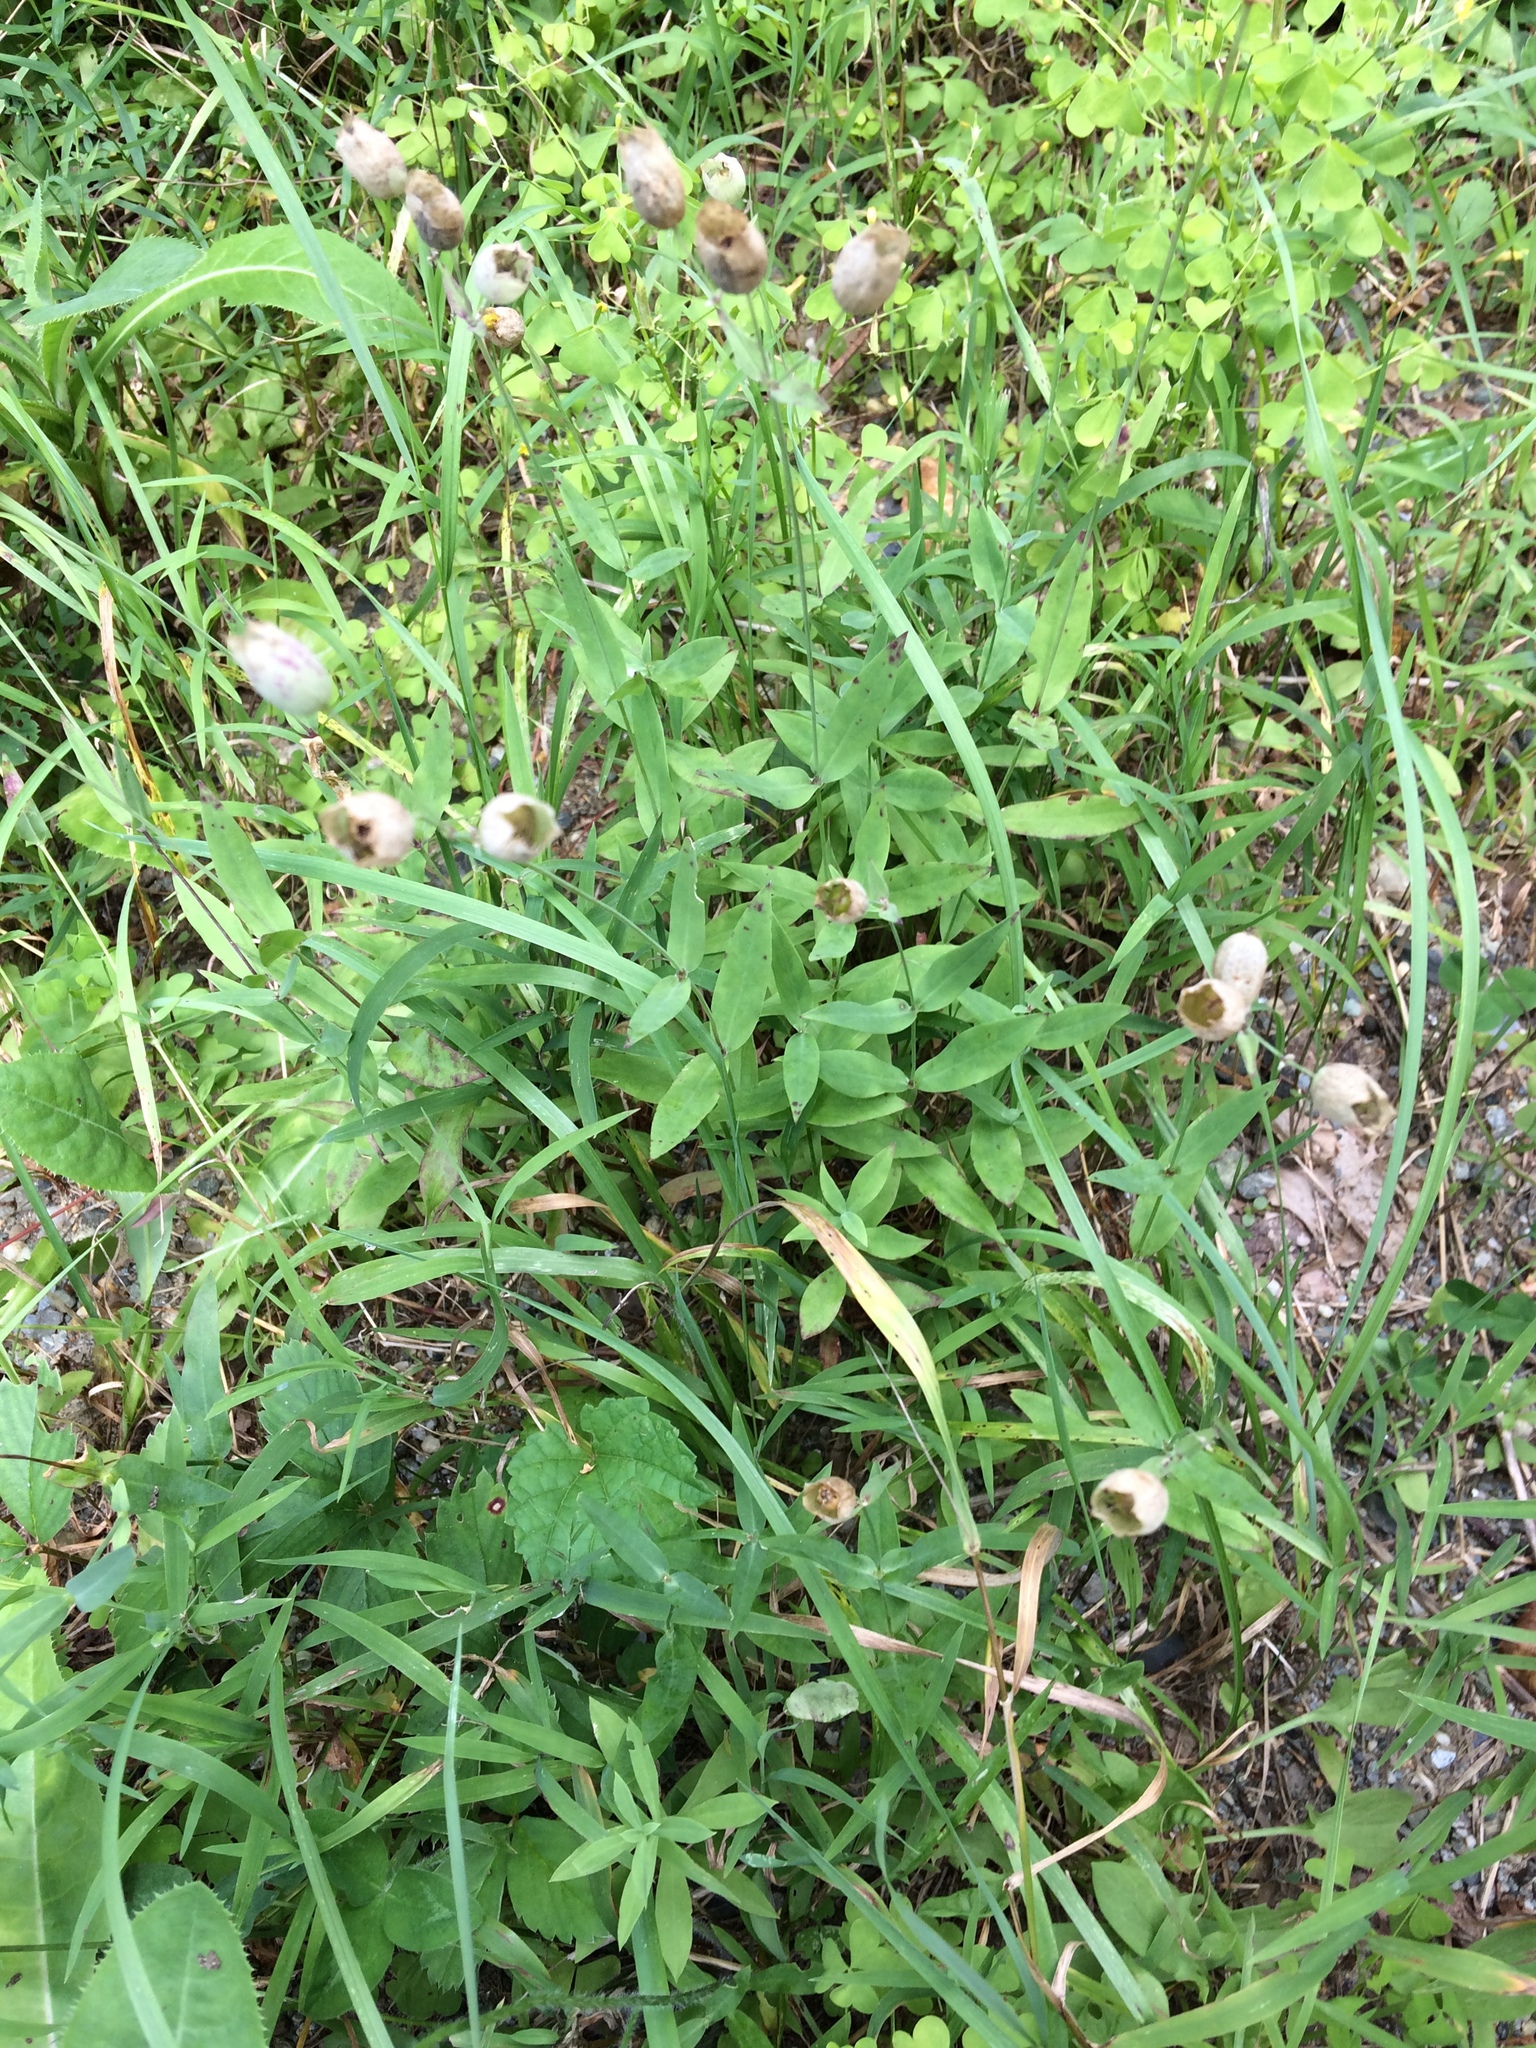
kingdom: Plantae
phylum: Tracheophyta
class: Magnoliopsida
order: Caryophyllales
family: Caryophyllaceae
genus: Silene
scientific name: Silene vulgaris
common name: Bladder campion
